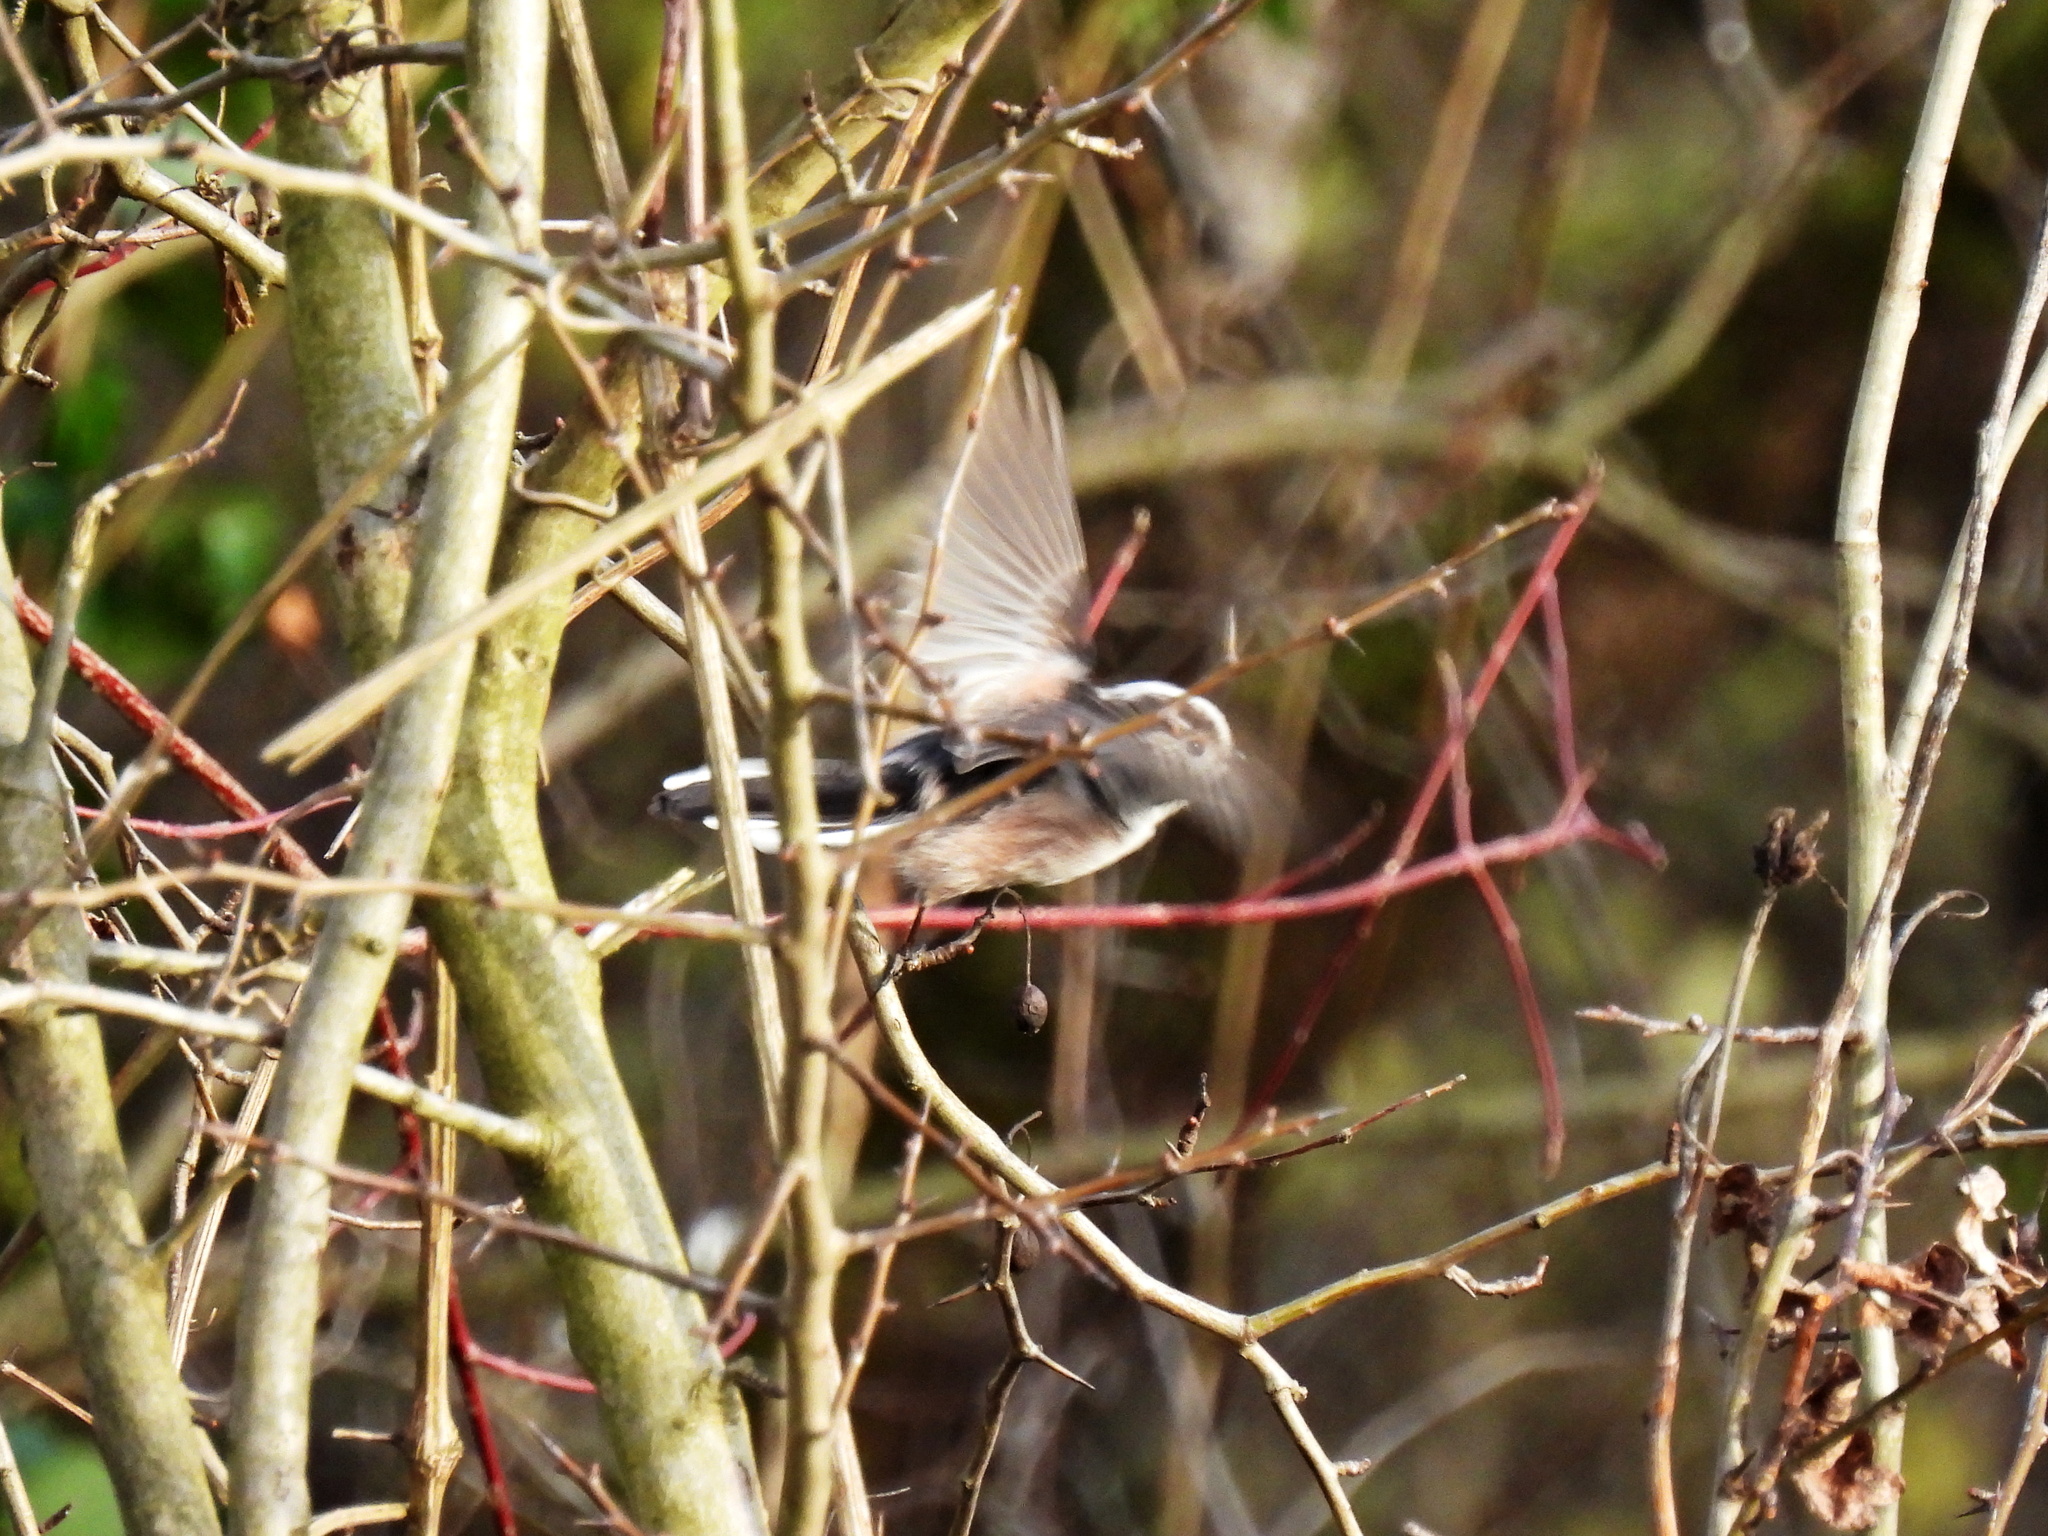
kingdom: Animalia
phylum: Chordata
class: Aves
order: Passeriformes
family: Aegithalidae
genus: Aegithalos
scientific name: Aegithalos caudatus
